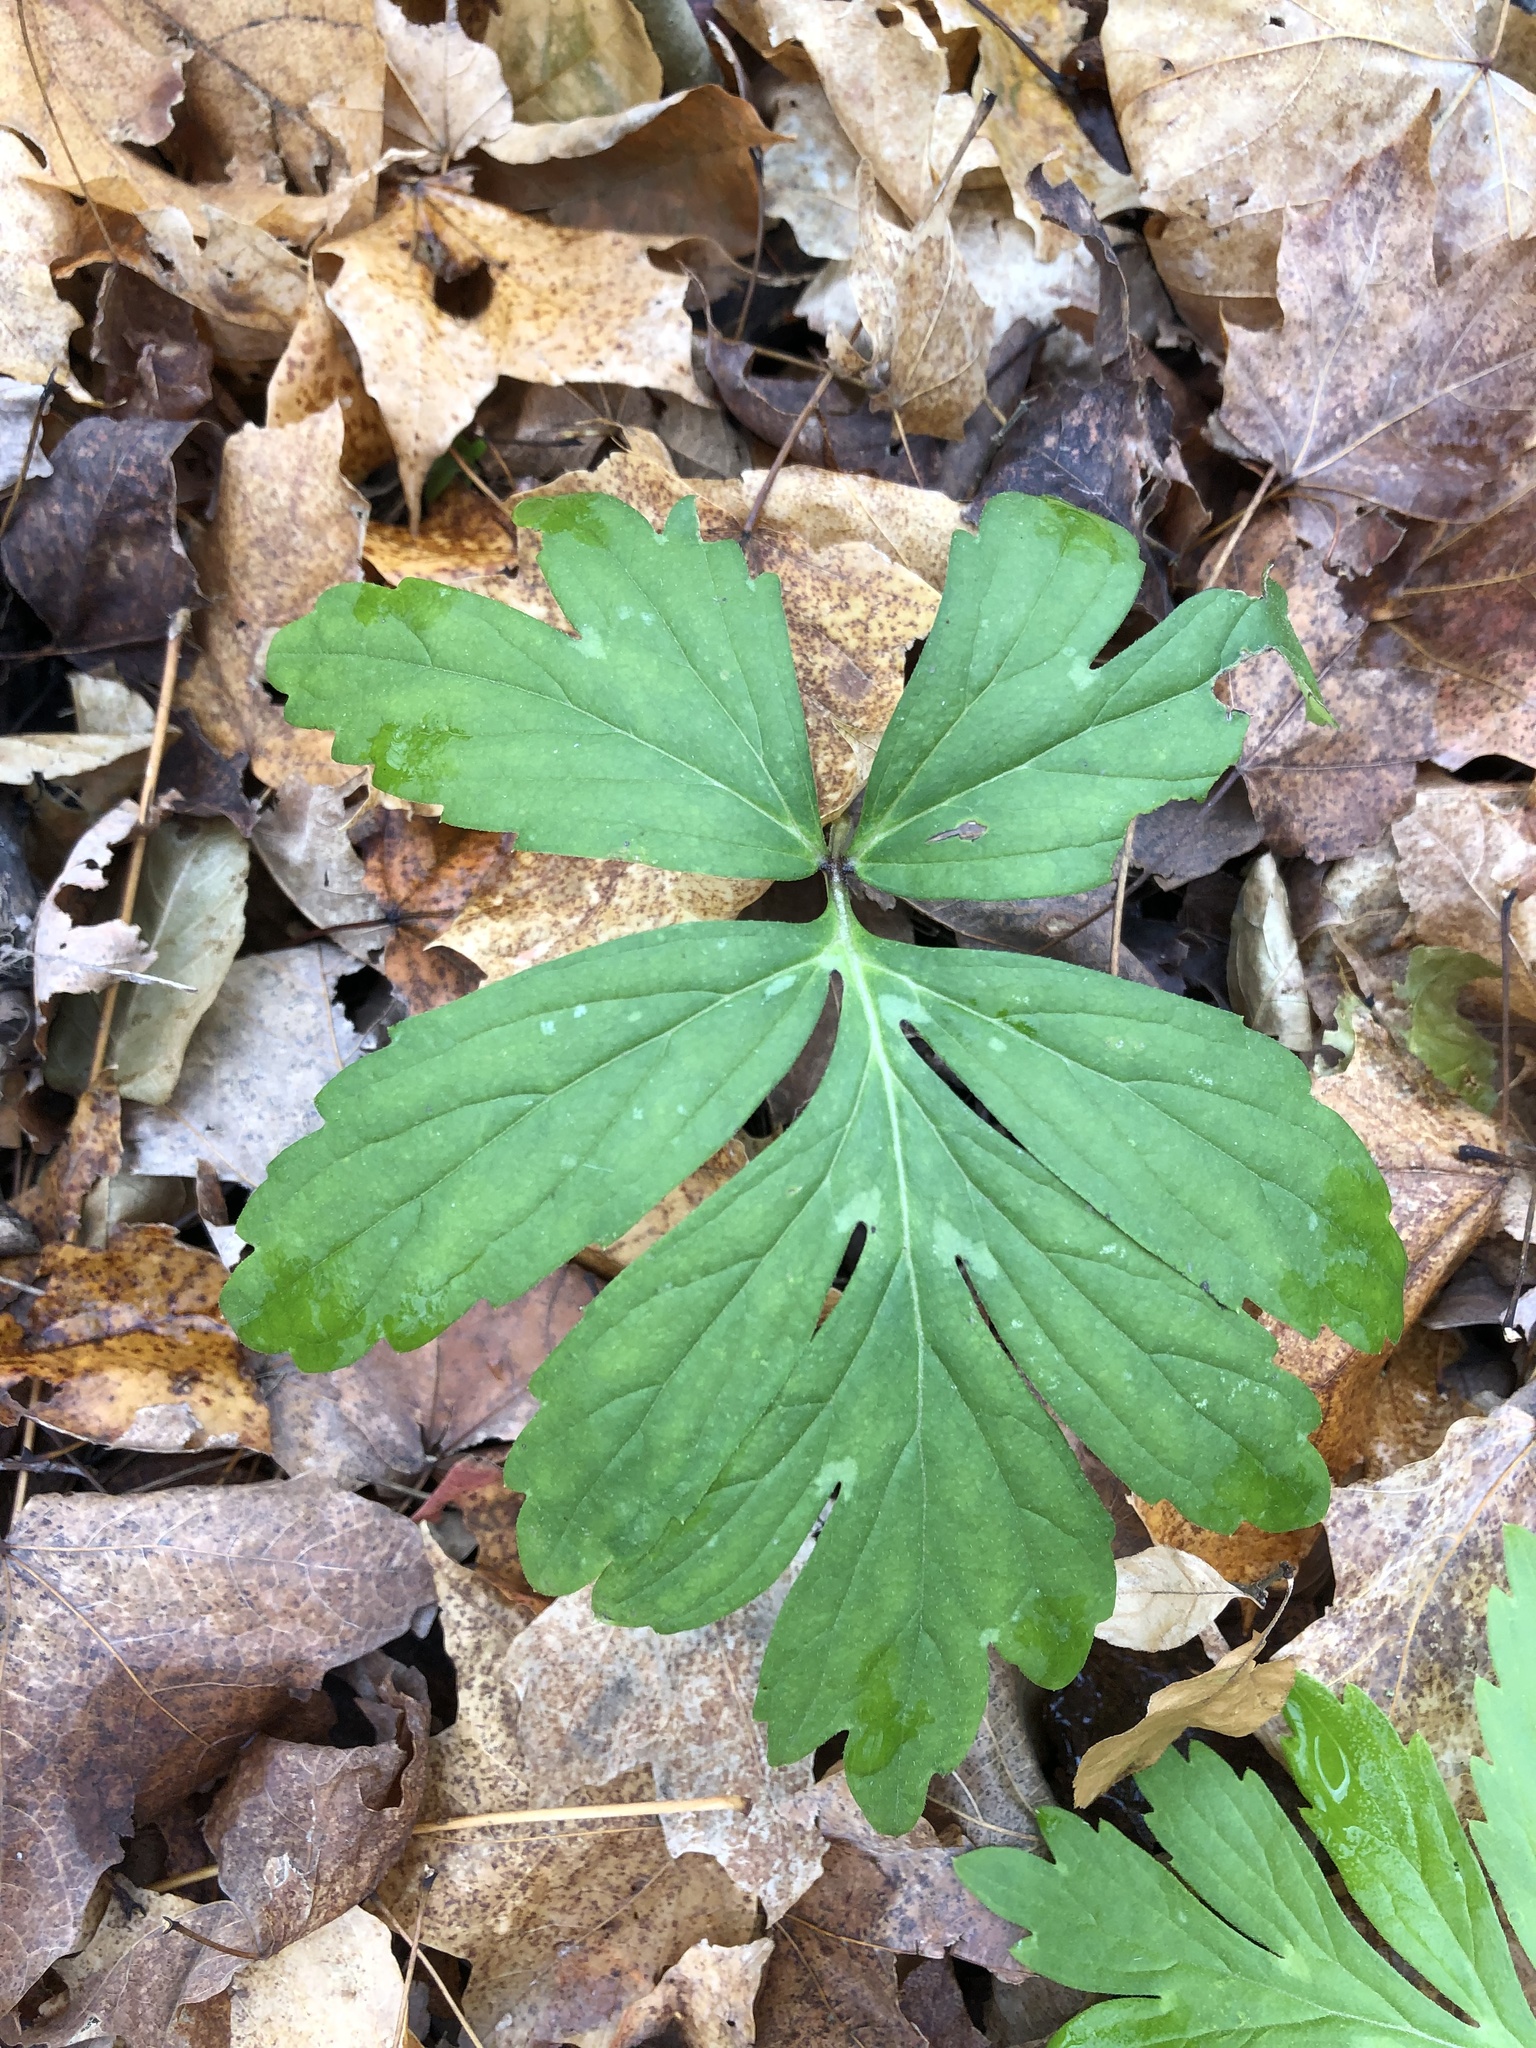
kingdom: Plantae
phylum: Tracheophyta
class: Magnoliopsida
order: Boraginales
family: Hydrophyllaceae
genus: Hydrophyllum
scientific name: Hydrophyllum virginianum
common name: Virginia waterleaf
